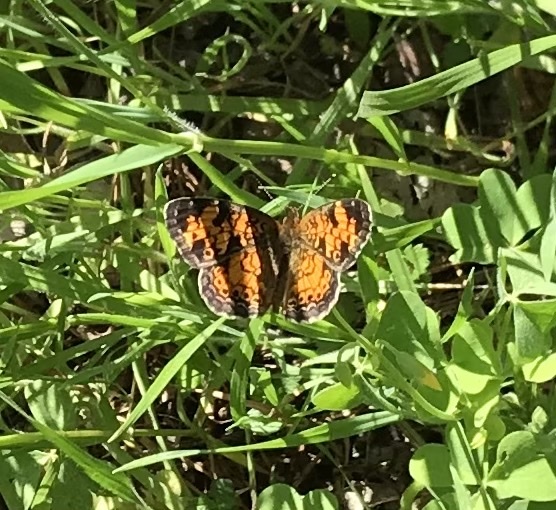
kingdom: Animalia
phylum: Arthropoda
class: Insecta
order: Lepidoptera
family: Nymphalidae
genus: Phyciodes
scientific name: Phyciodes tharos
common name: Pearl crescent
